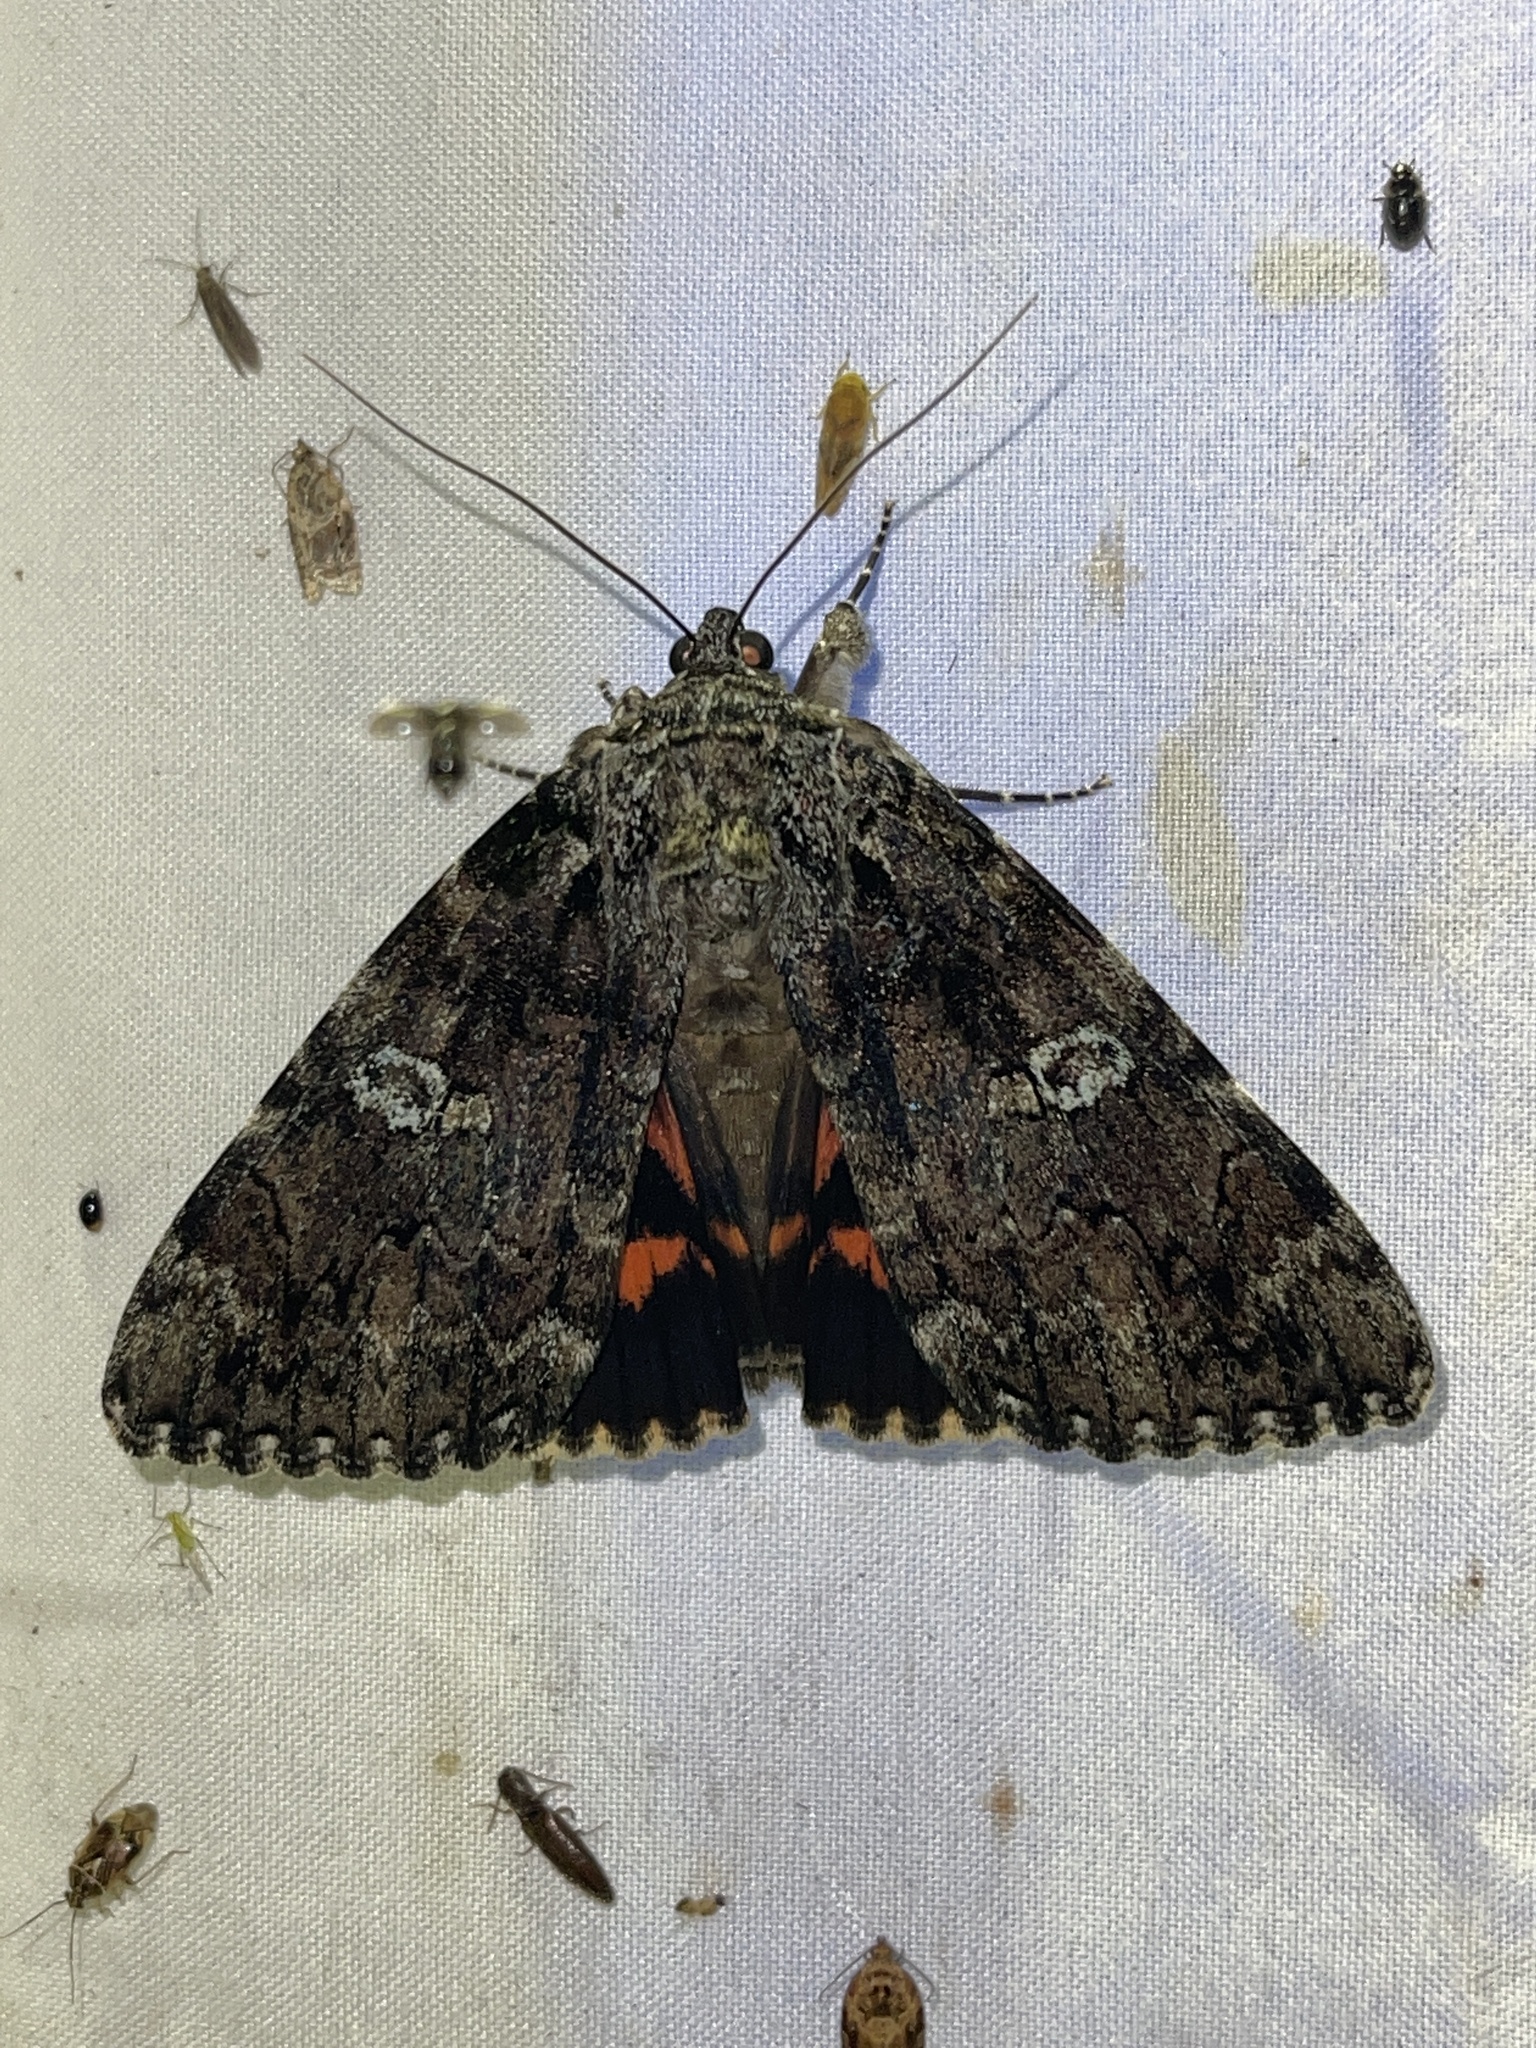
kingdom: Animalia
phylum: Arthropoda
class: Insecta
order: Lepidoptera
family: Erebidae
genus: Catocala
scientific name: Catocala ilia
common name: Ilia underwing
